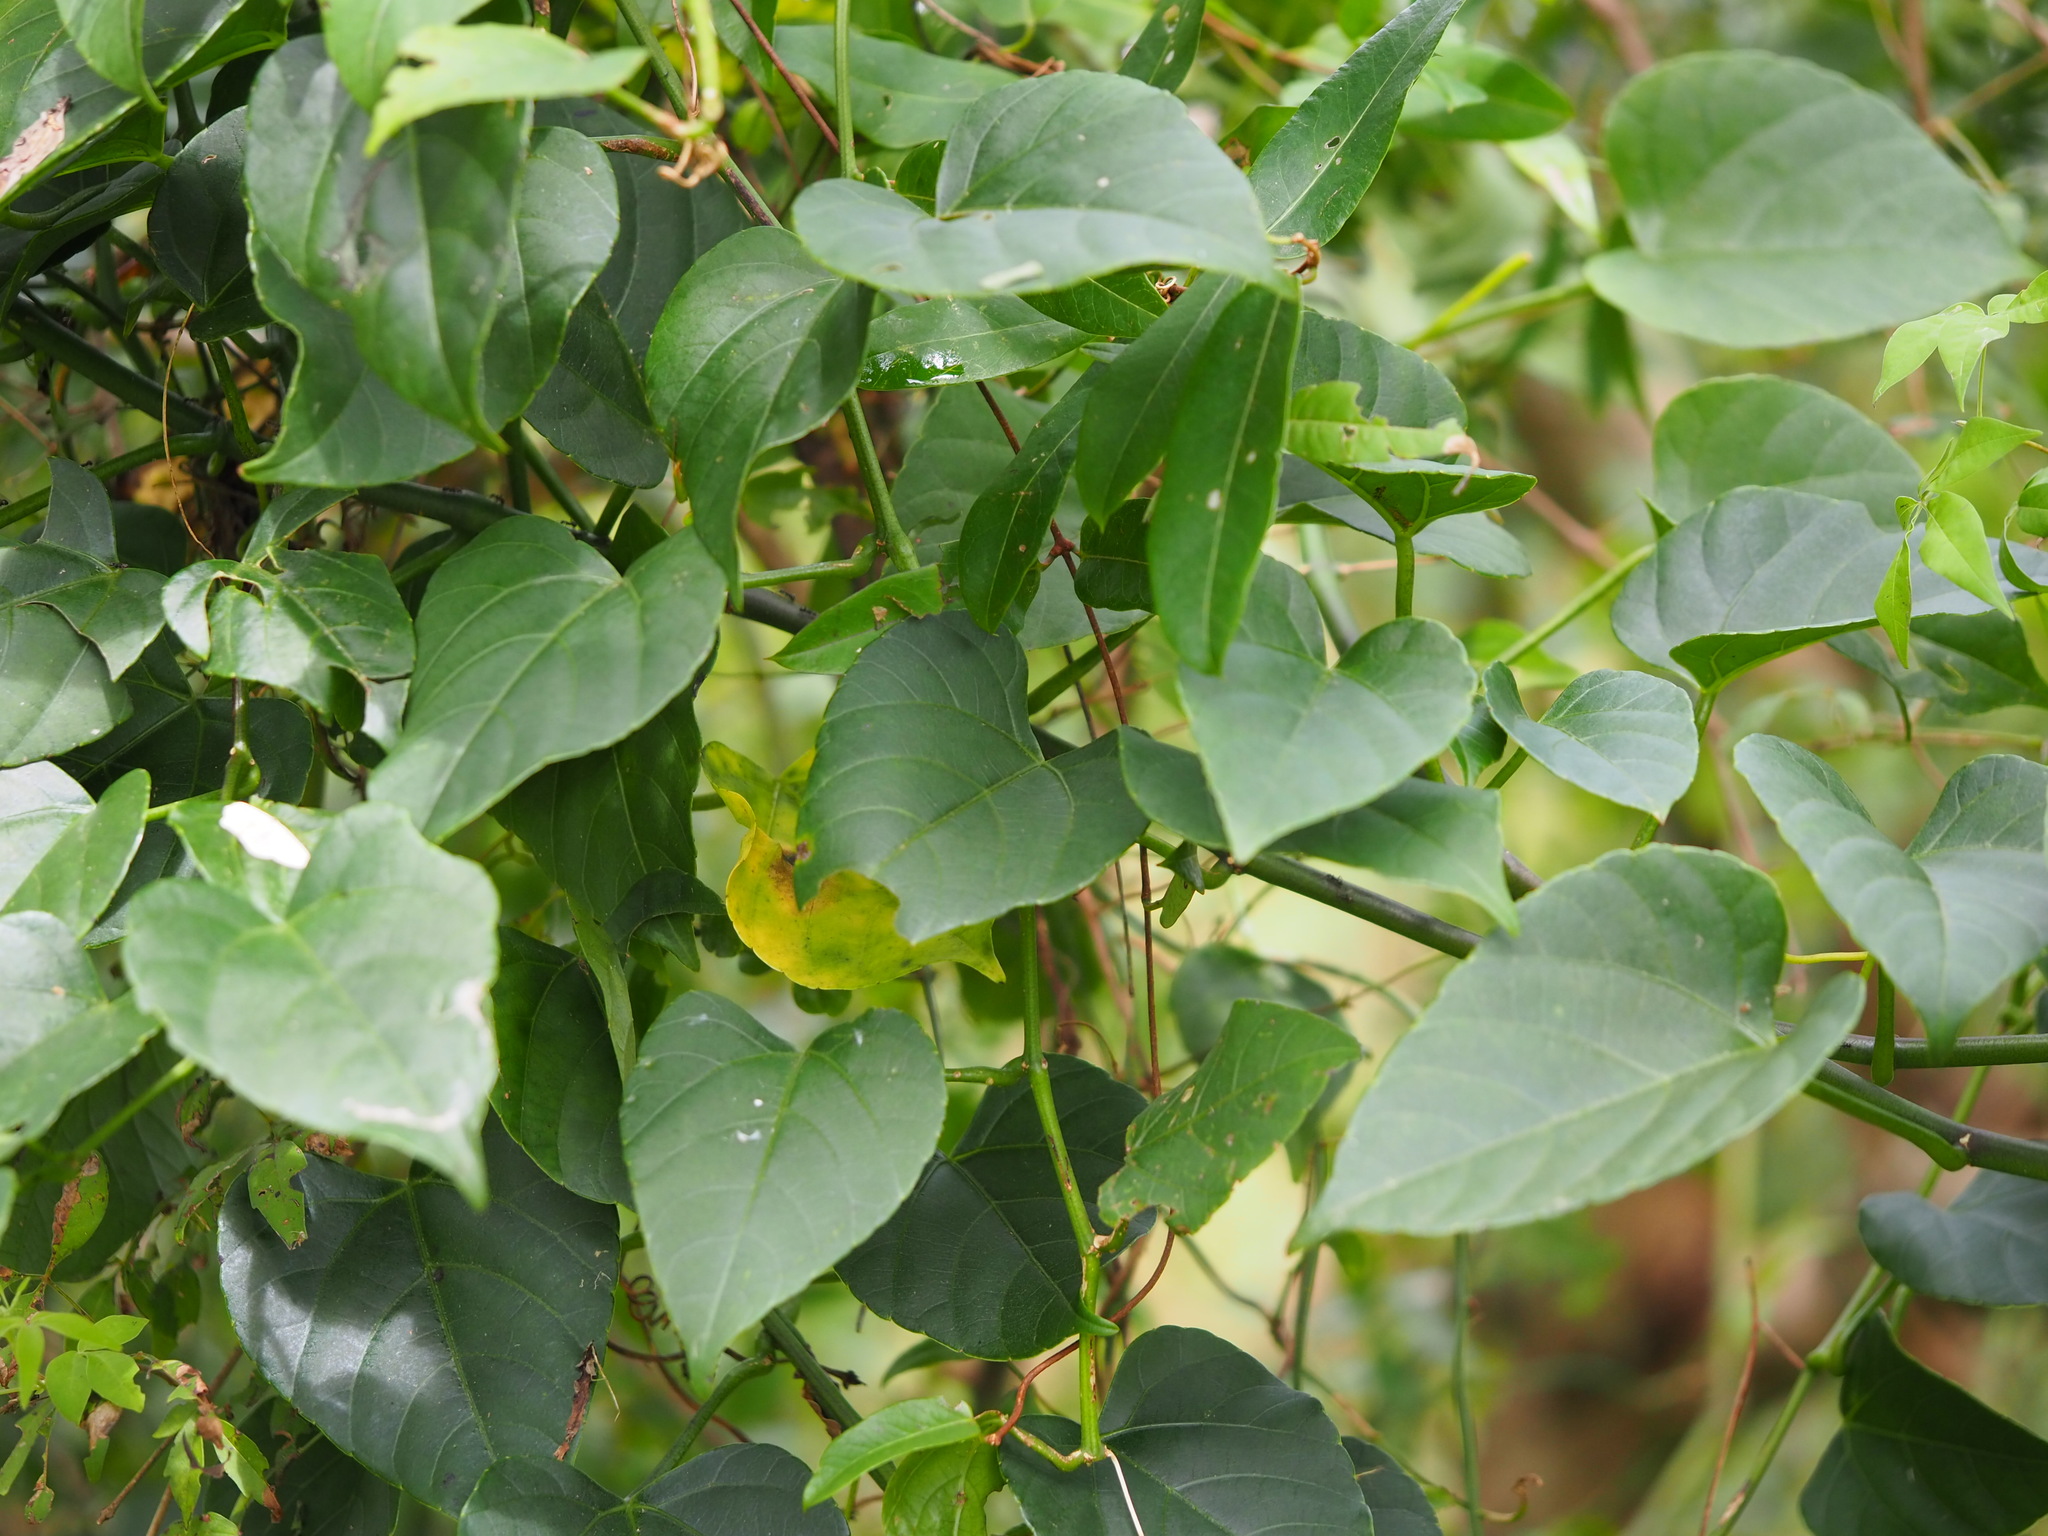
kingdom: Plantae
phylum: Tracheophyta
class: Magnoliopsida
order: Vitales
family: Vitaceae
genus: Cissus
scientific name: Cissus modeccoides
